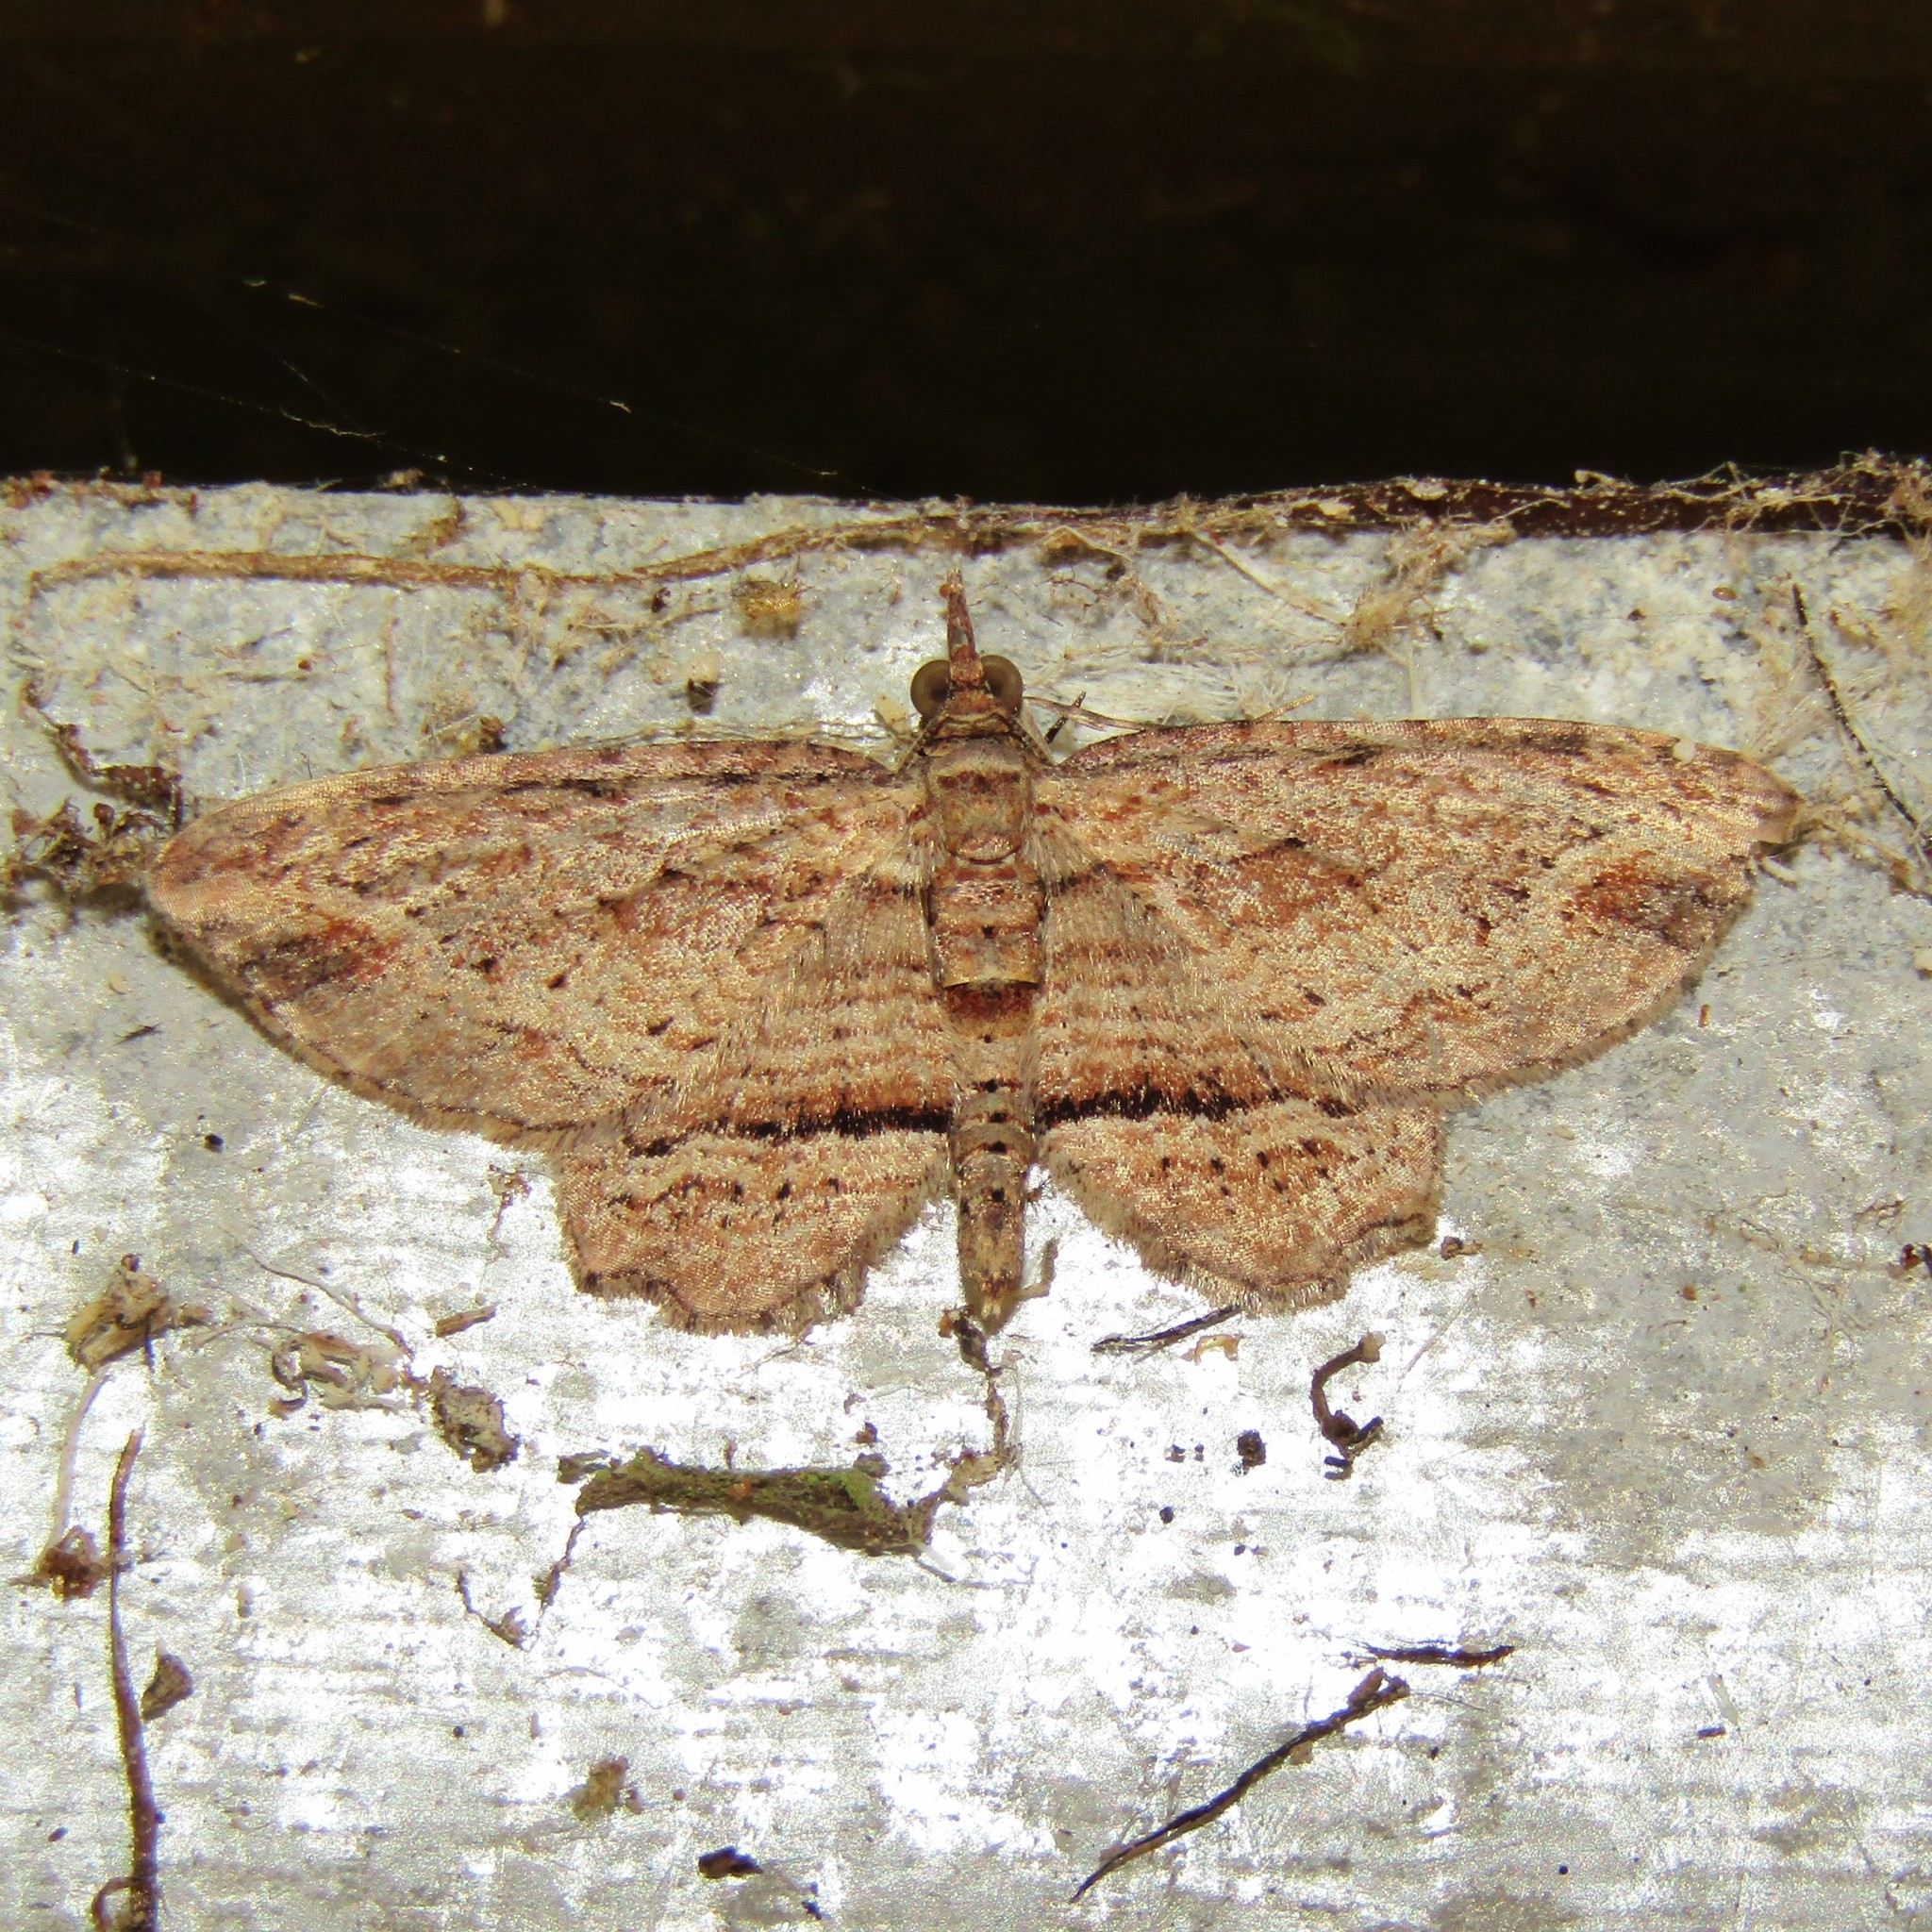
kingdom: Animalia
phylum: Arthropoda
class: Insecta
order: Lepidoptera
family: Geometridae
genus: Chloroclystis
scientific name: Chloroclystis filata
